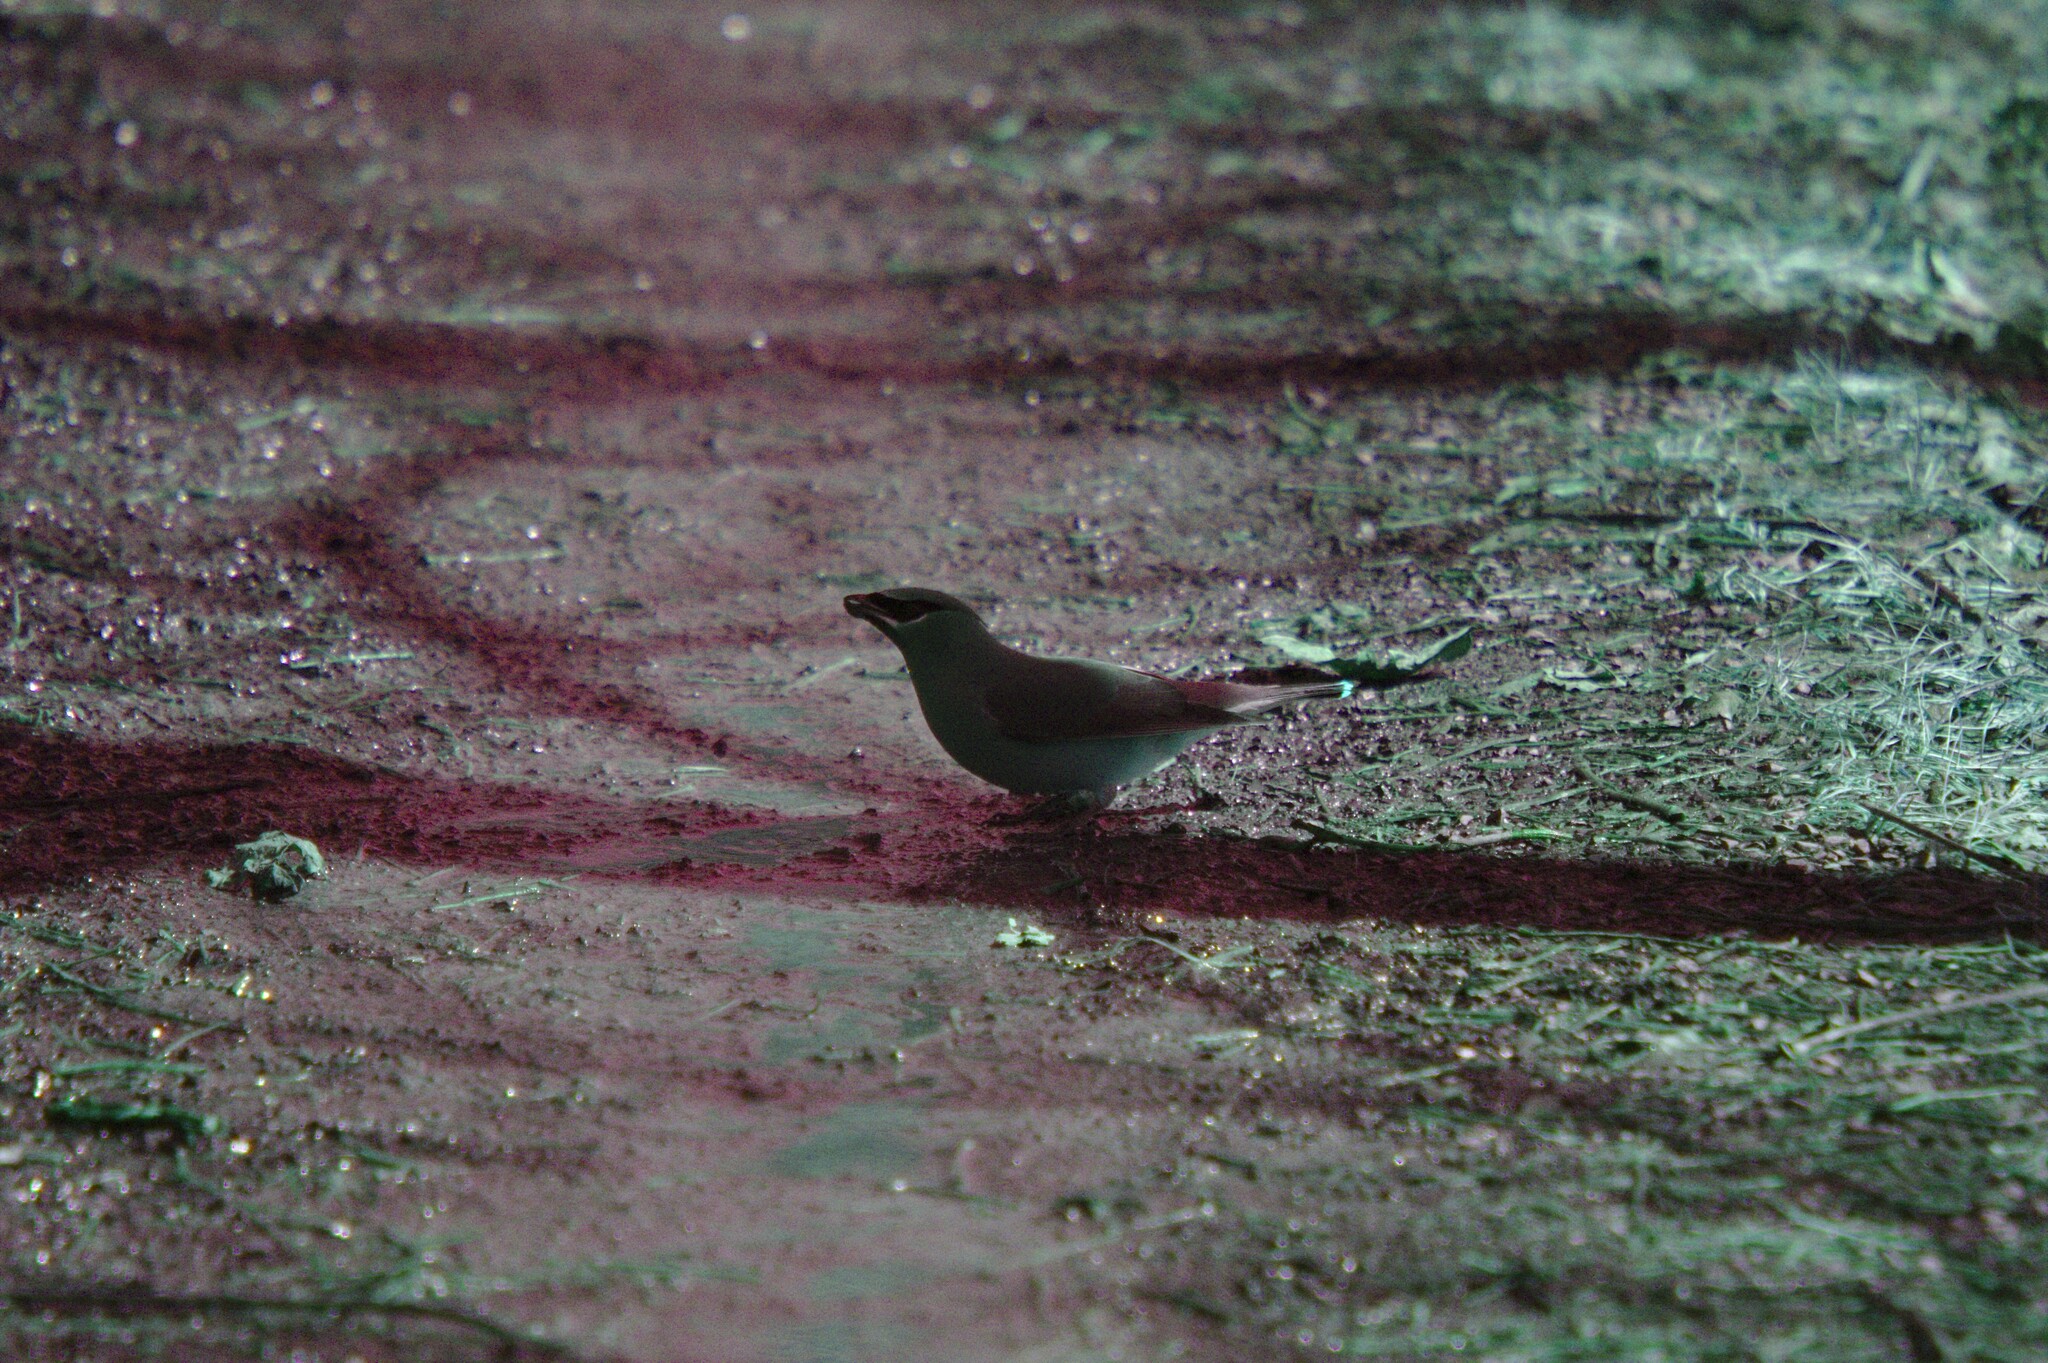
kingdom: Animalia
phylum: Chordata
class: Aves
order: Passeriformes
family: Bombycillidae
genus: Bombycilla
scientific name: Bombycilla cedrorum
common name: Cedar waxwing
